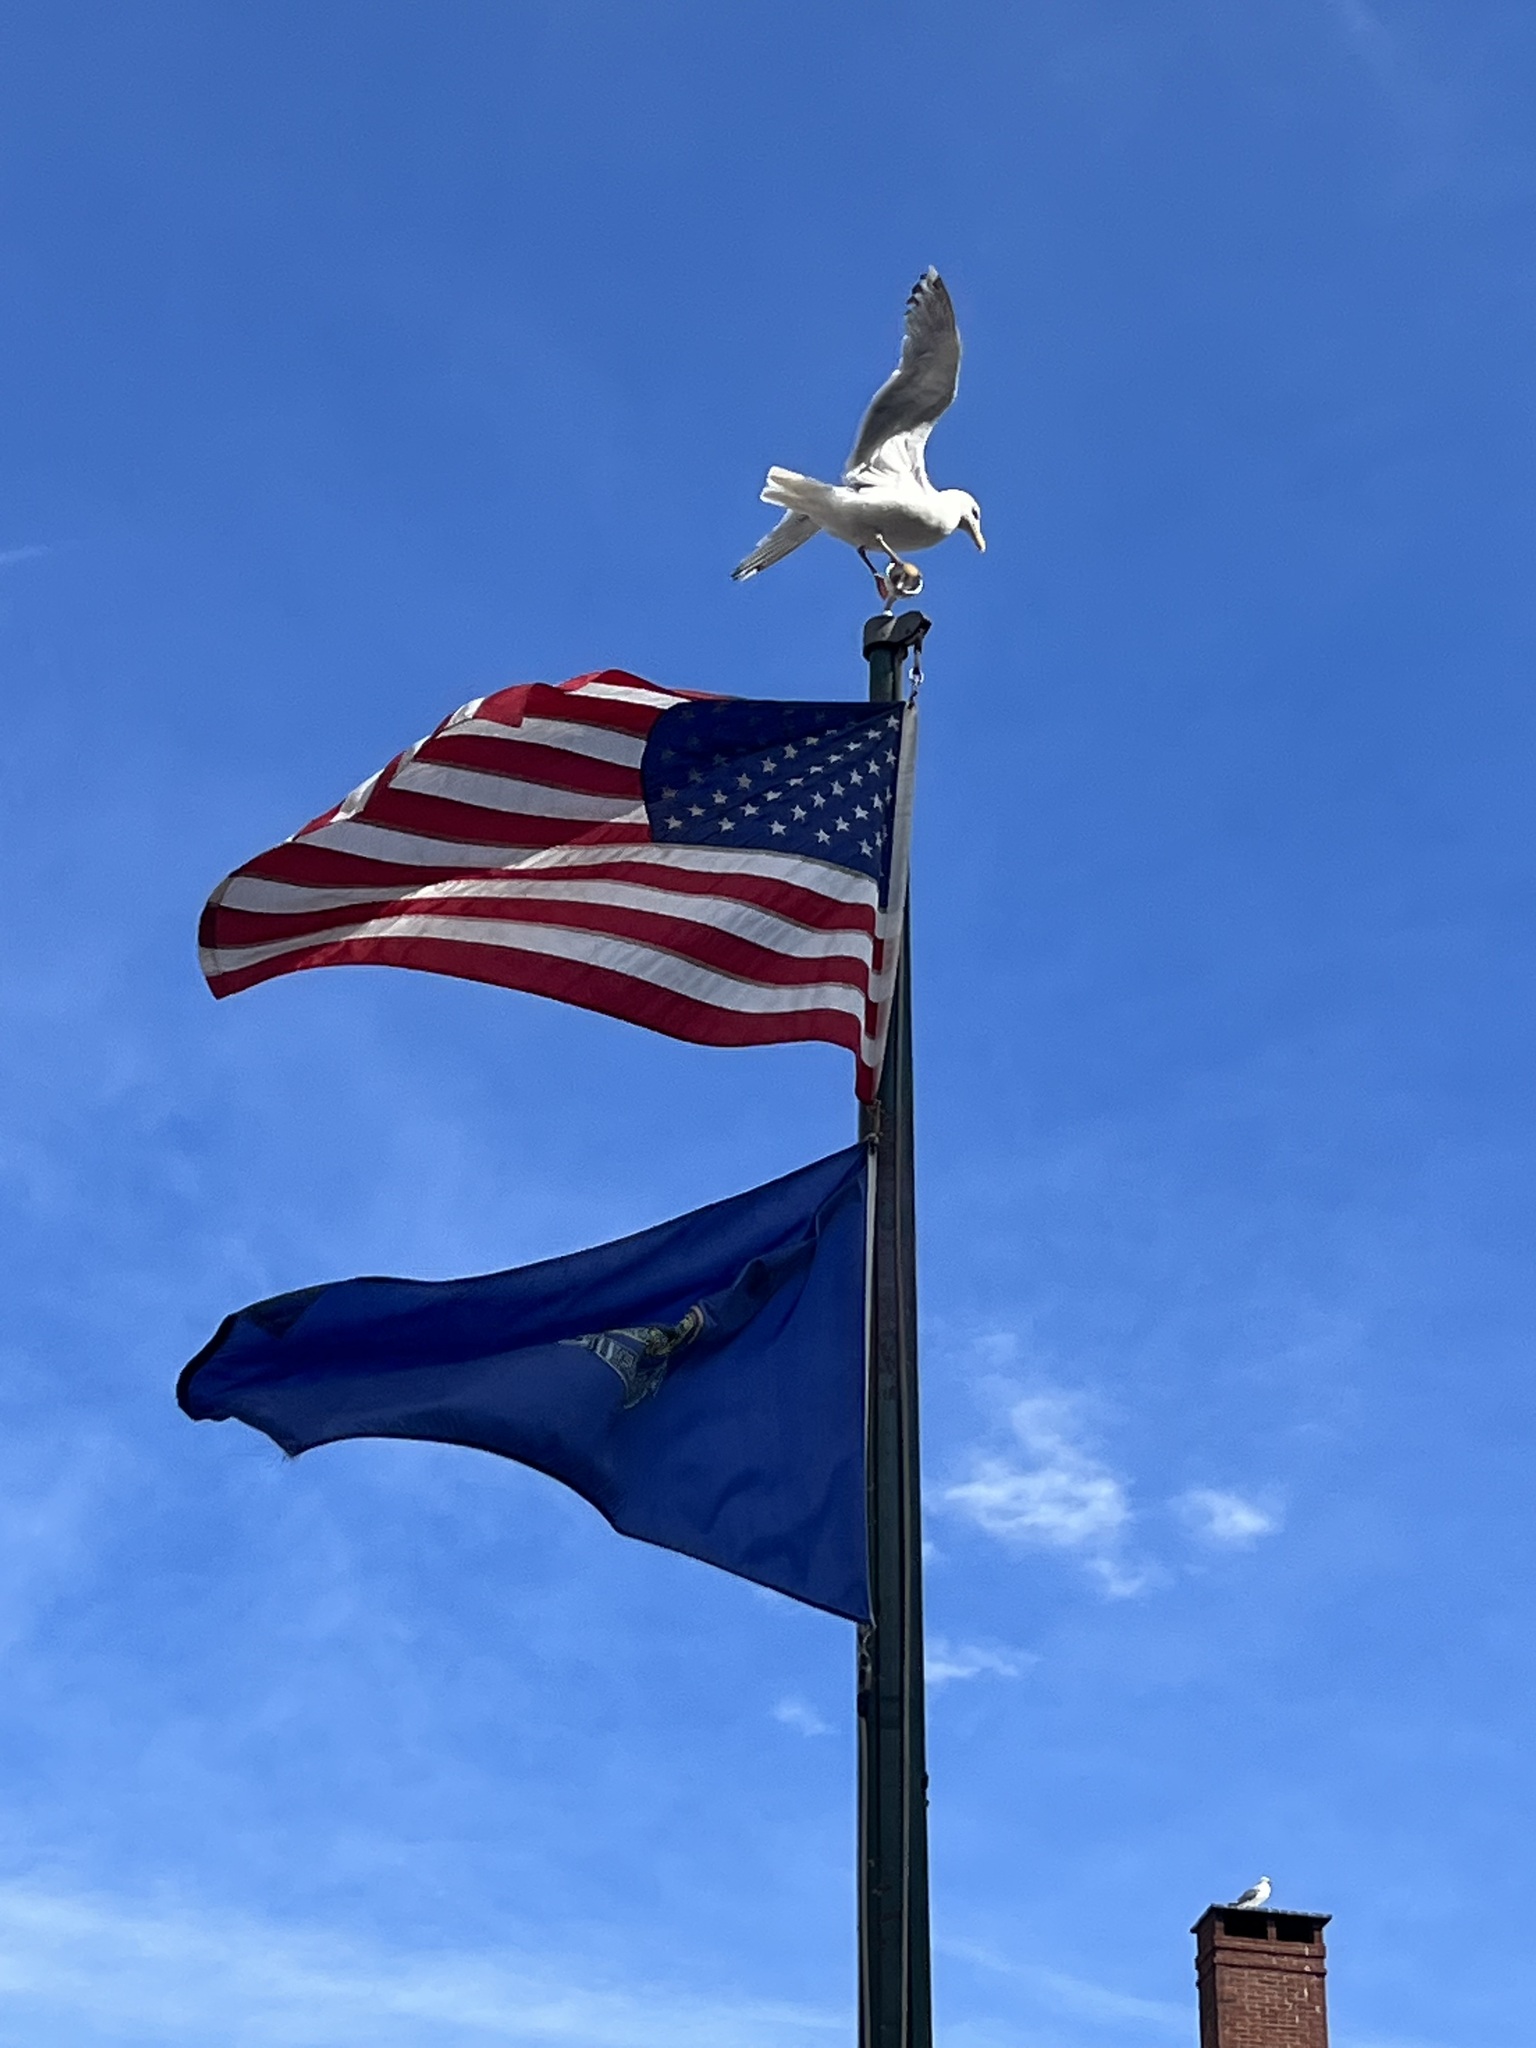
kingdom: Animalia
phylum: Chordata
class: Aves
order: Charadriiformes
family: Laridae
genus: Larus
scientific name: Larus argentatus
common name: Herring gull
